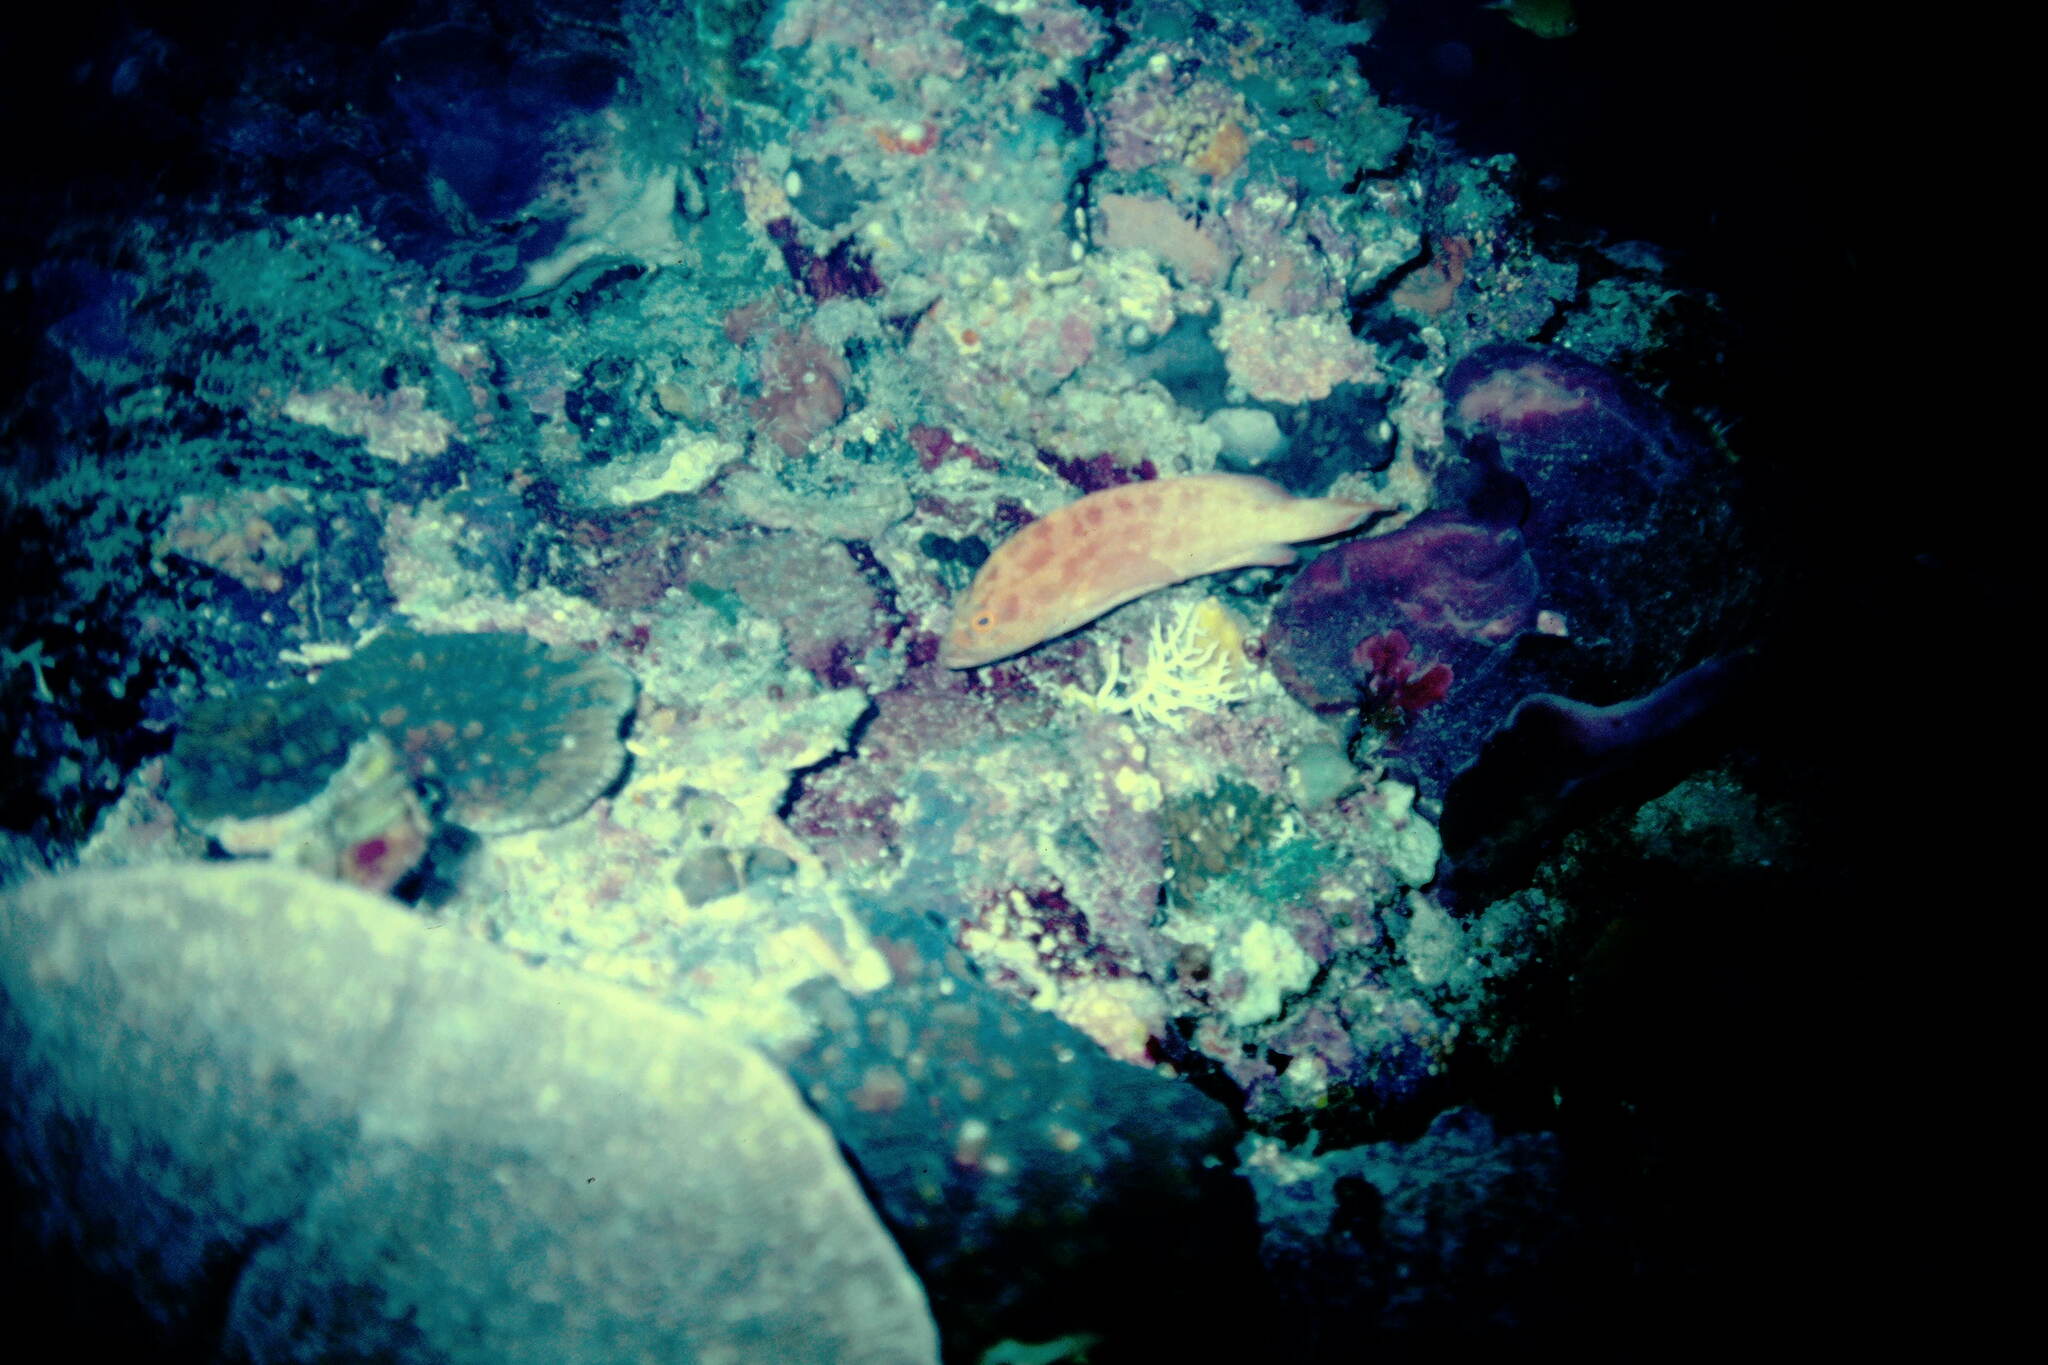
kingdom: Animalia
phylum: Chordata
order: Perciformes
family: Serranidae
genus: Cephalopholis
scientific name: Cephalopholis spiloparaea
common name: Strawberry grouper
